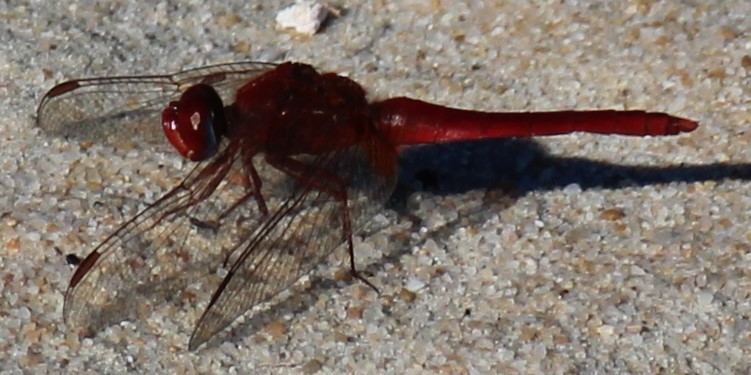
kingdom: Animalia
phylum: Arthropoda
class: Insecta
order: Odonata
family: Libellulidae
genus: Crocothemis
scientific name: Crocothemis erythraea
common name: Scarlet dragonfly
